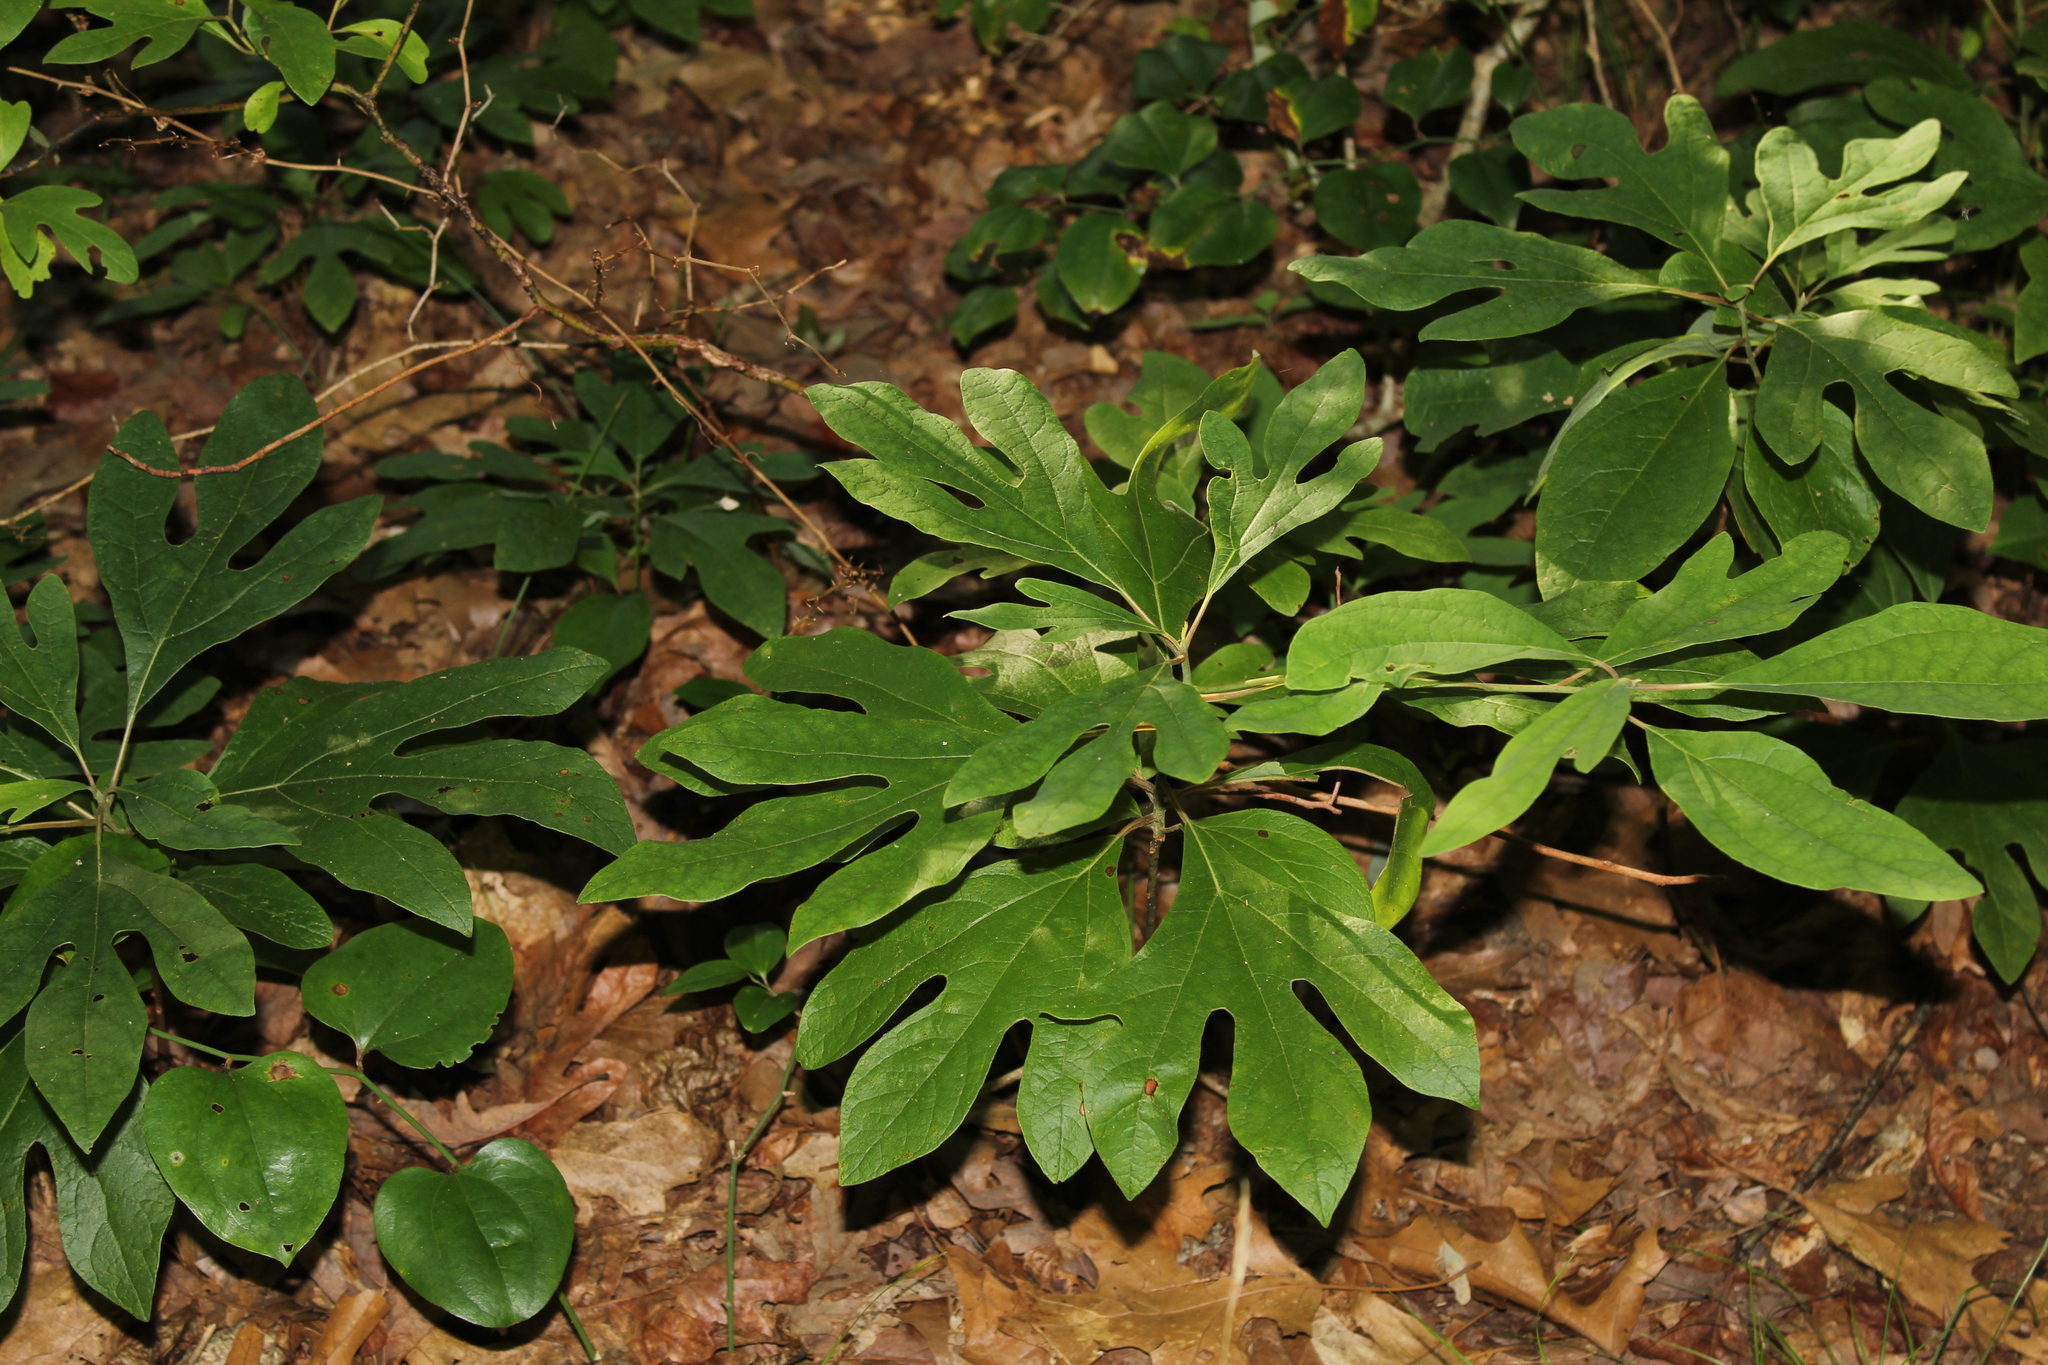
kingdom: Plantae
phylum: Tracheophyta
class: Magnoliopsida
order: Laurales
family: Lauraceae
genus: Sassafras
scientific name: Sassafras albidum
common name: Sassafras
